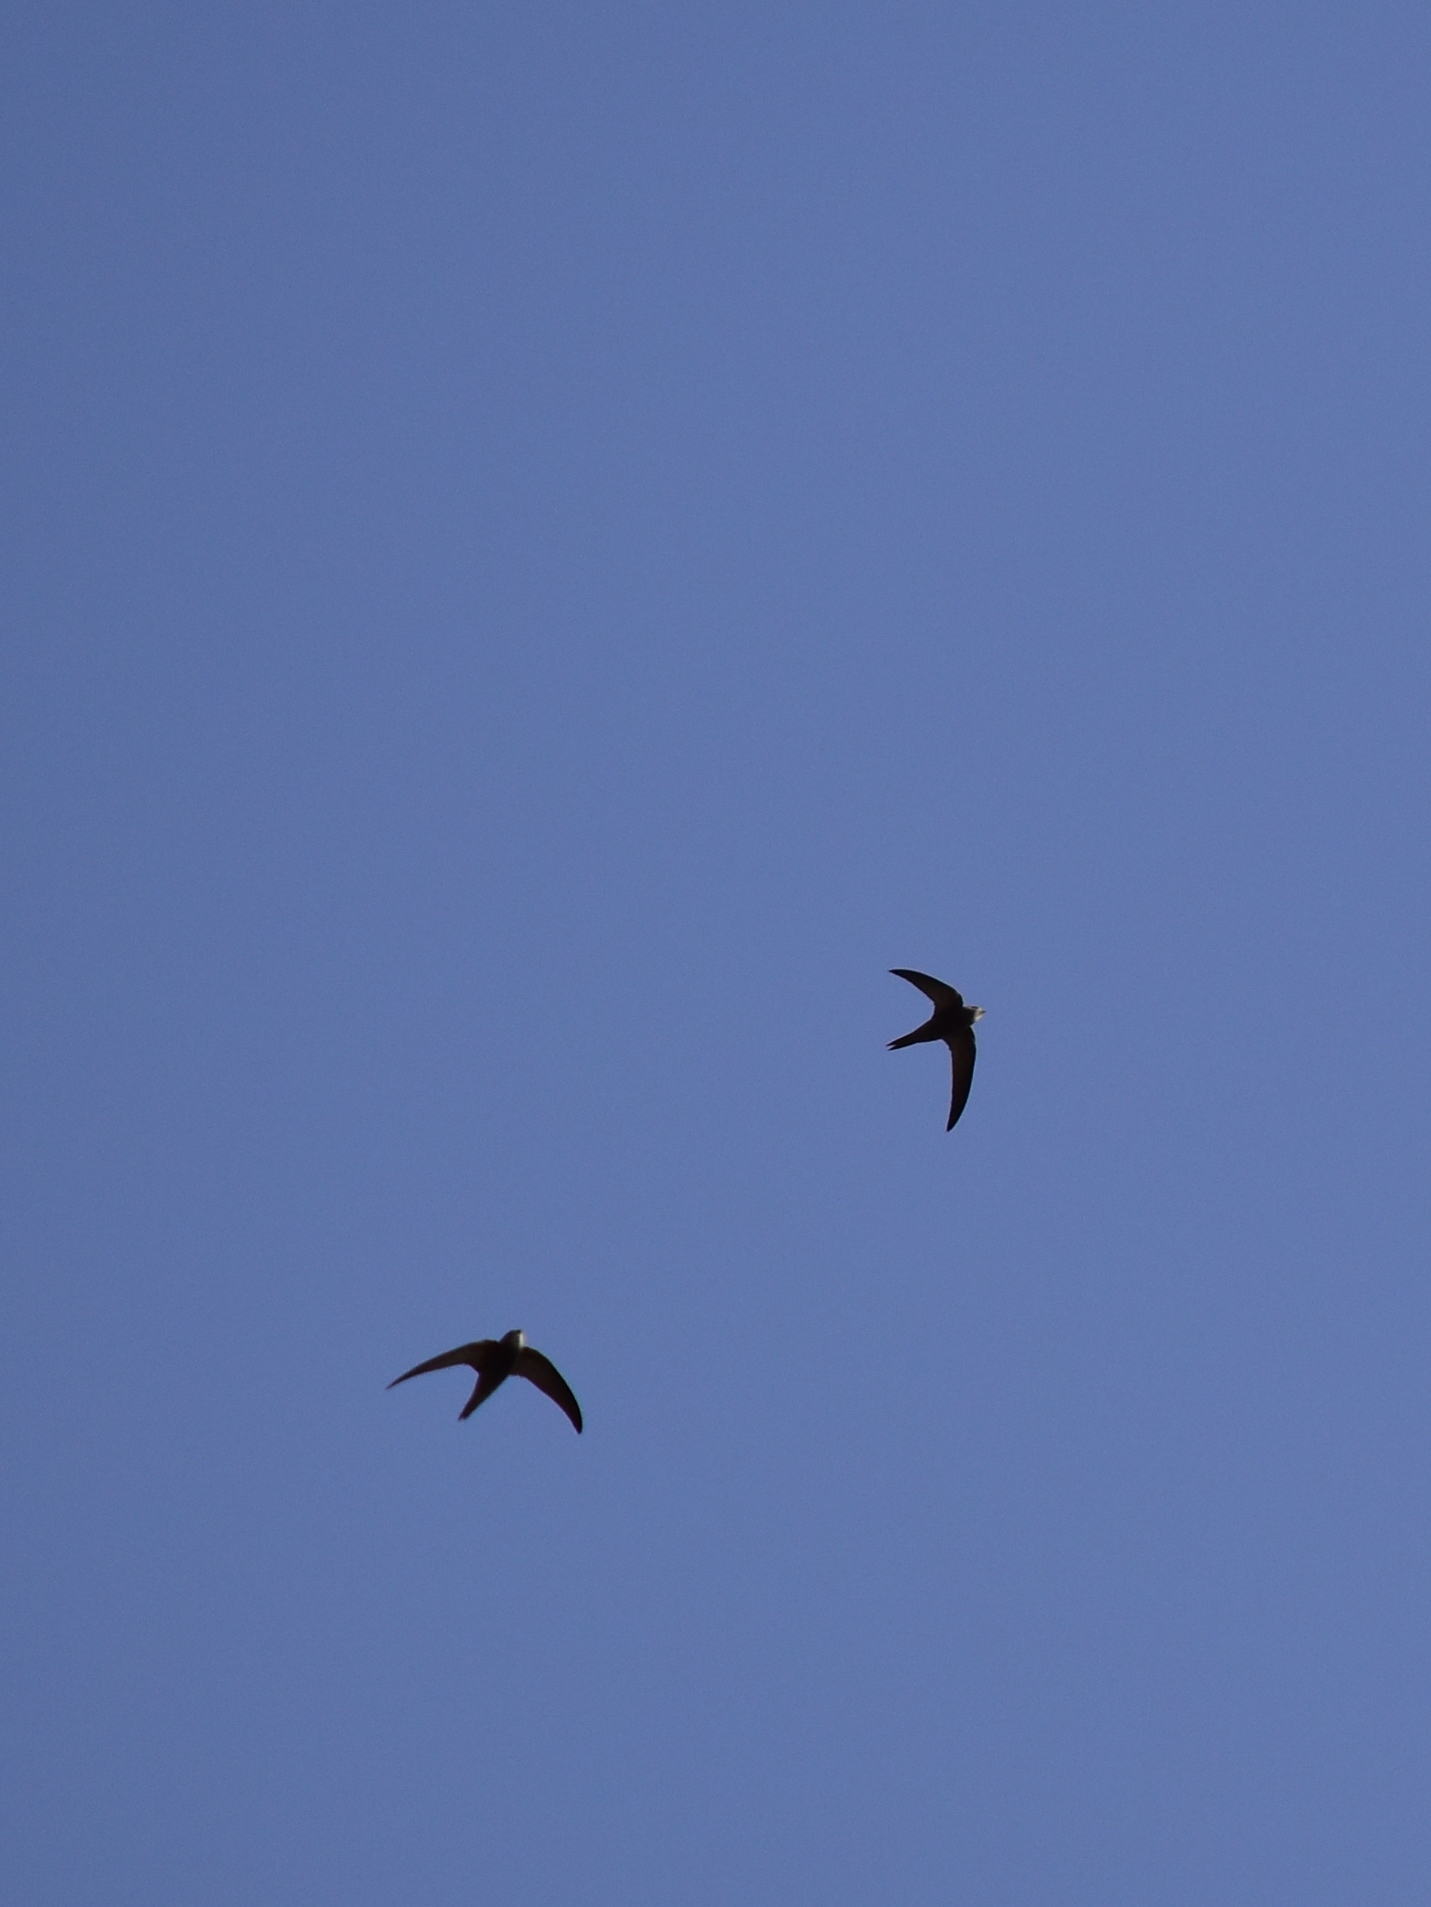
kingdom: Animalia
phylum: Chordata
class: Aves
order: Apodiformes
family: Apodidae
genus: Apus
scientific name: Apus apus
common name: Common swift
